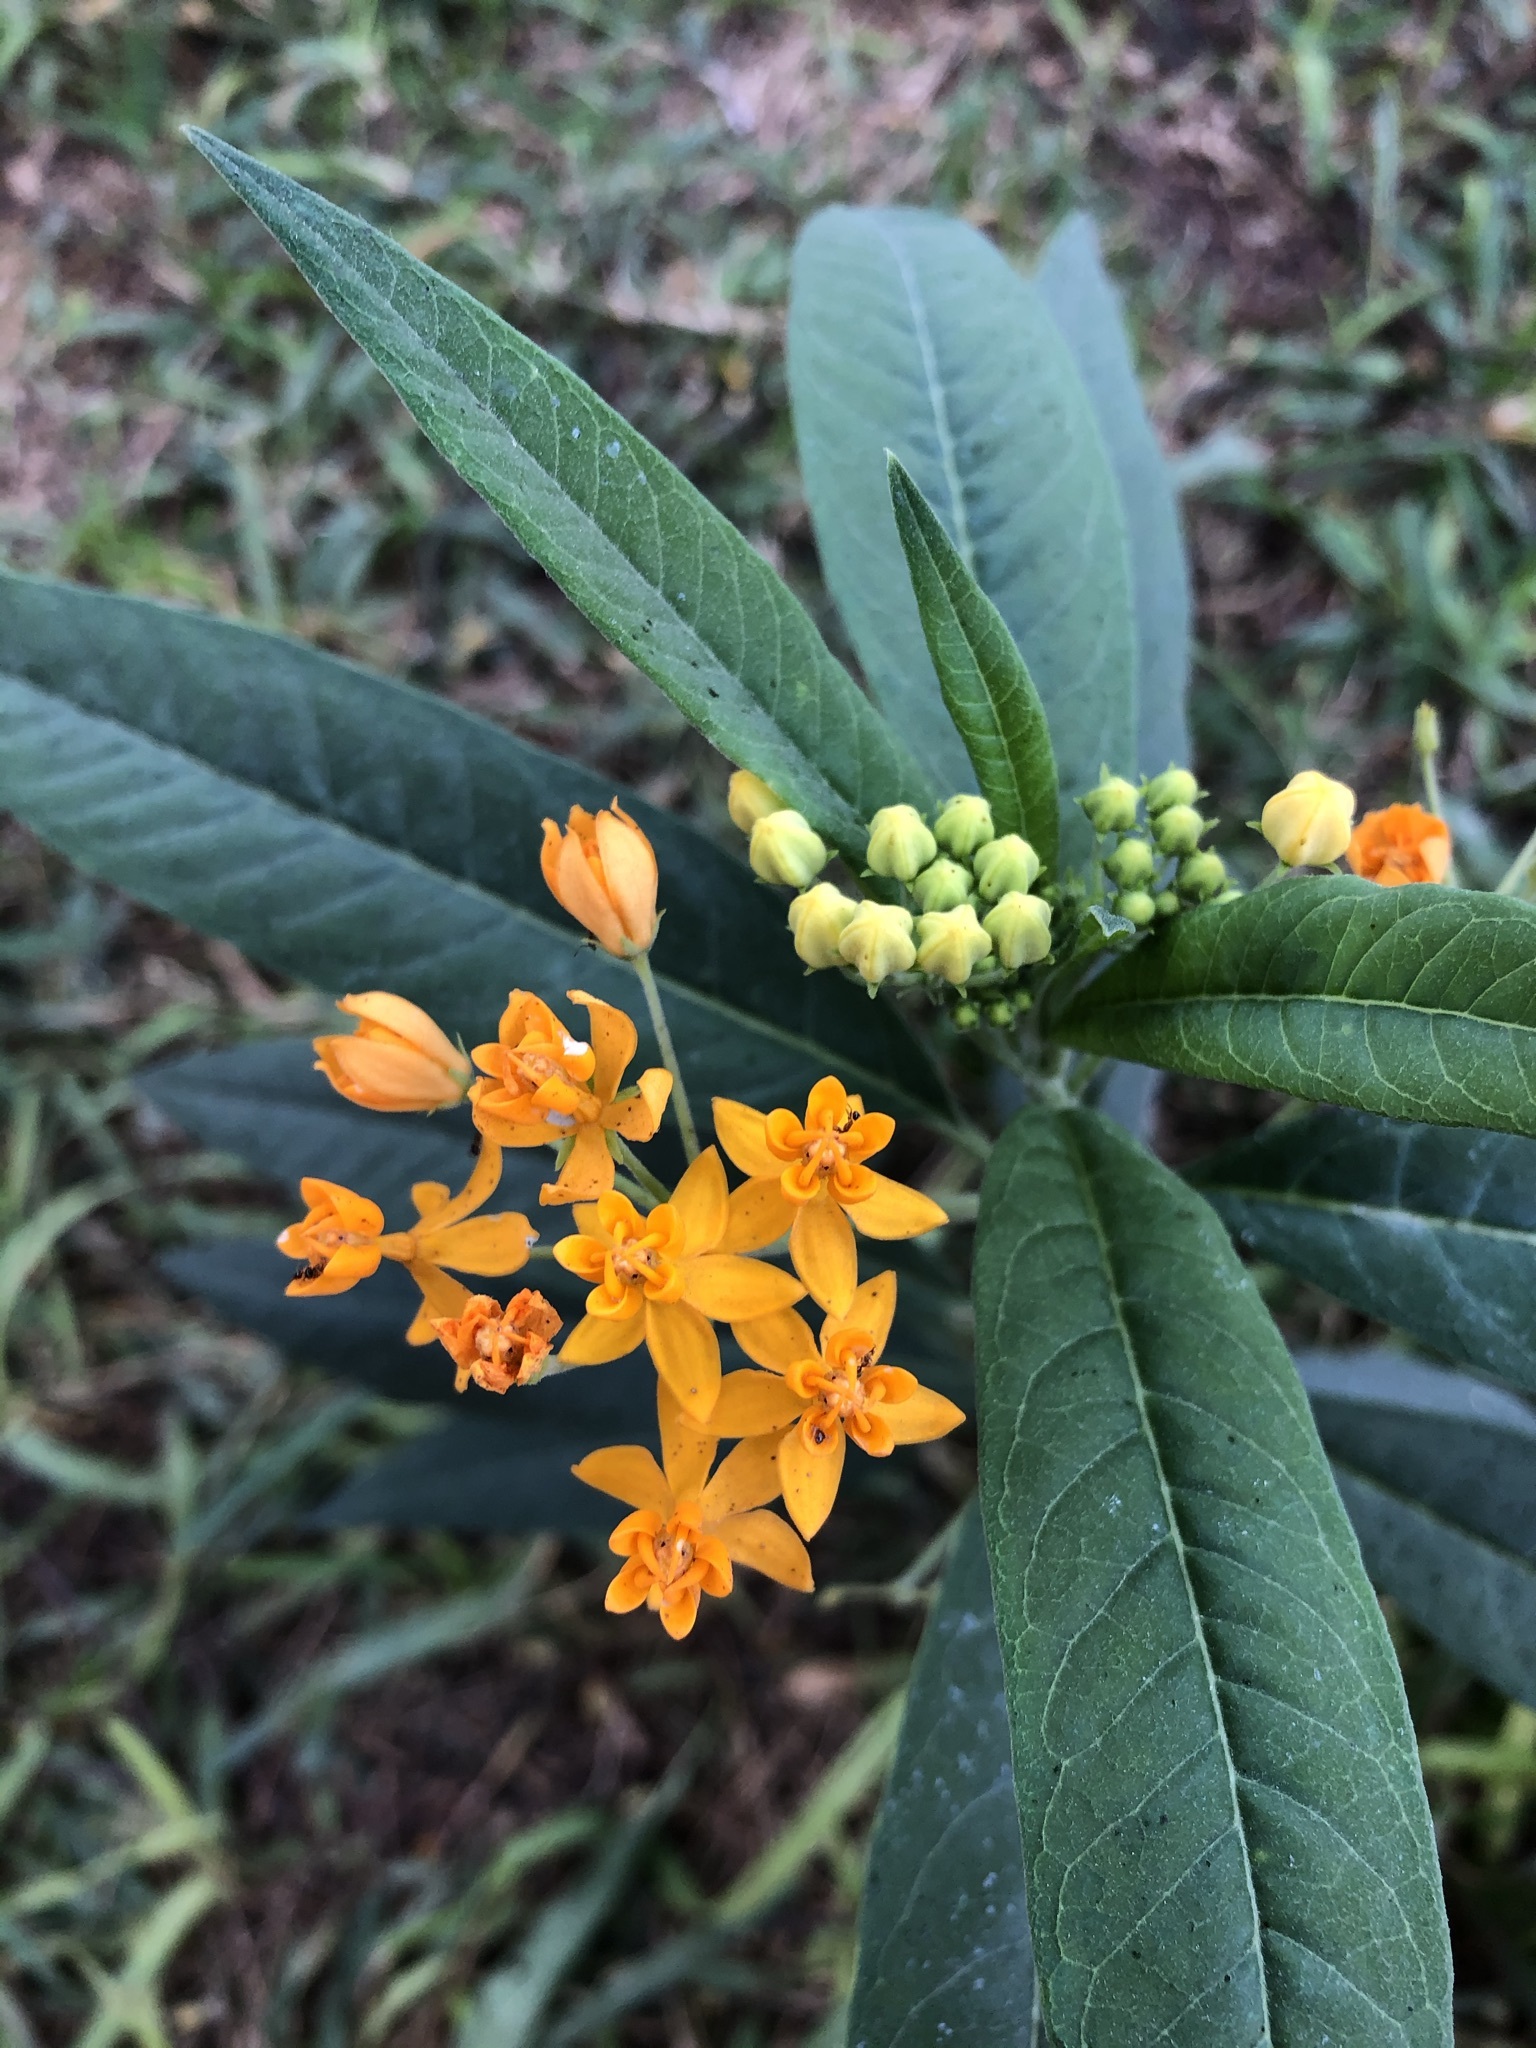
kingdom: Plantae
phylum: Tracheophyta
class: Magnoliopsida
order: Gentianales
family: Apocynaceae
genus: Asclepias
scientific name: Asclepias curassavica
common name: Bloodflower
